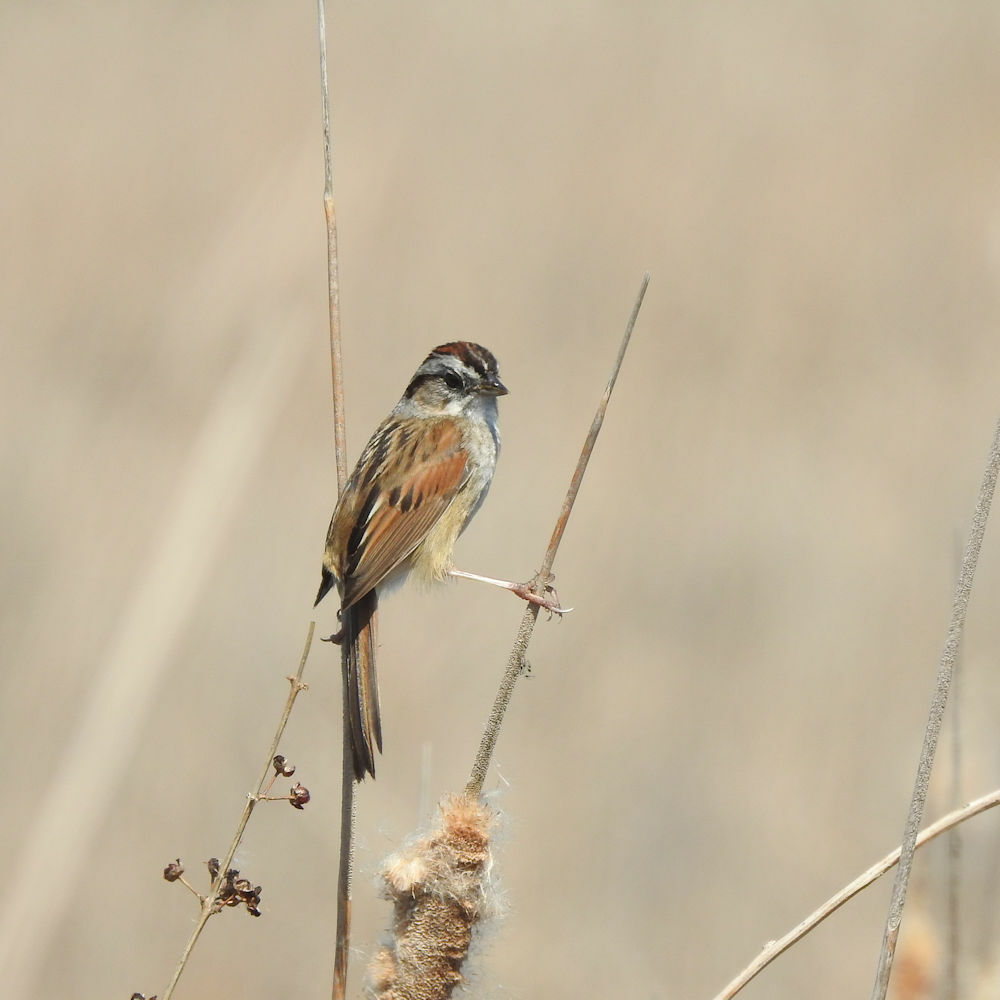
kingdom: Animalia
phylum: Chordata
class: Aves
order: Passeriformes
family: Passerellidae
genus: Melospiza
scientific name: Melospiza georgiana
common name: Swamp sparrow
